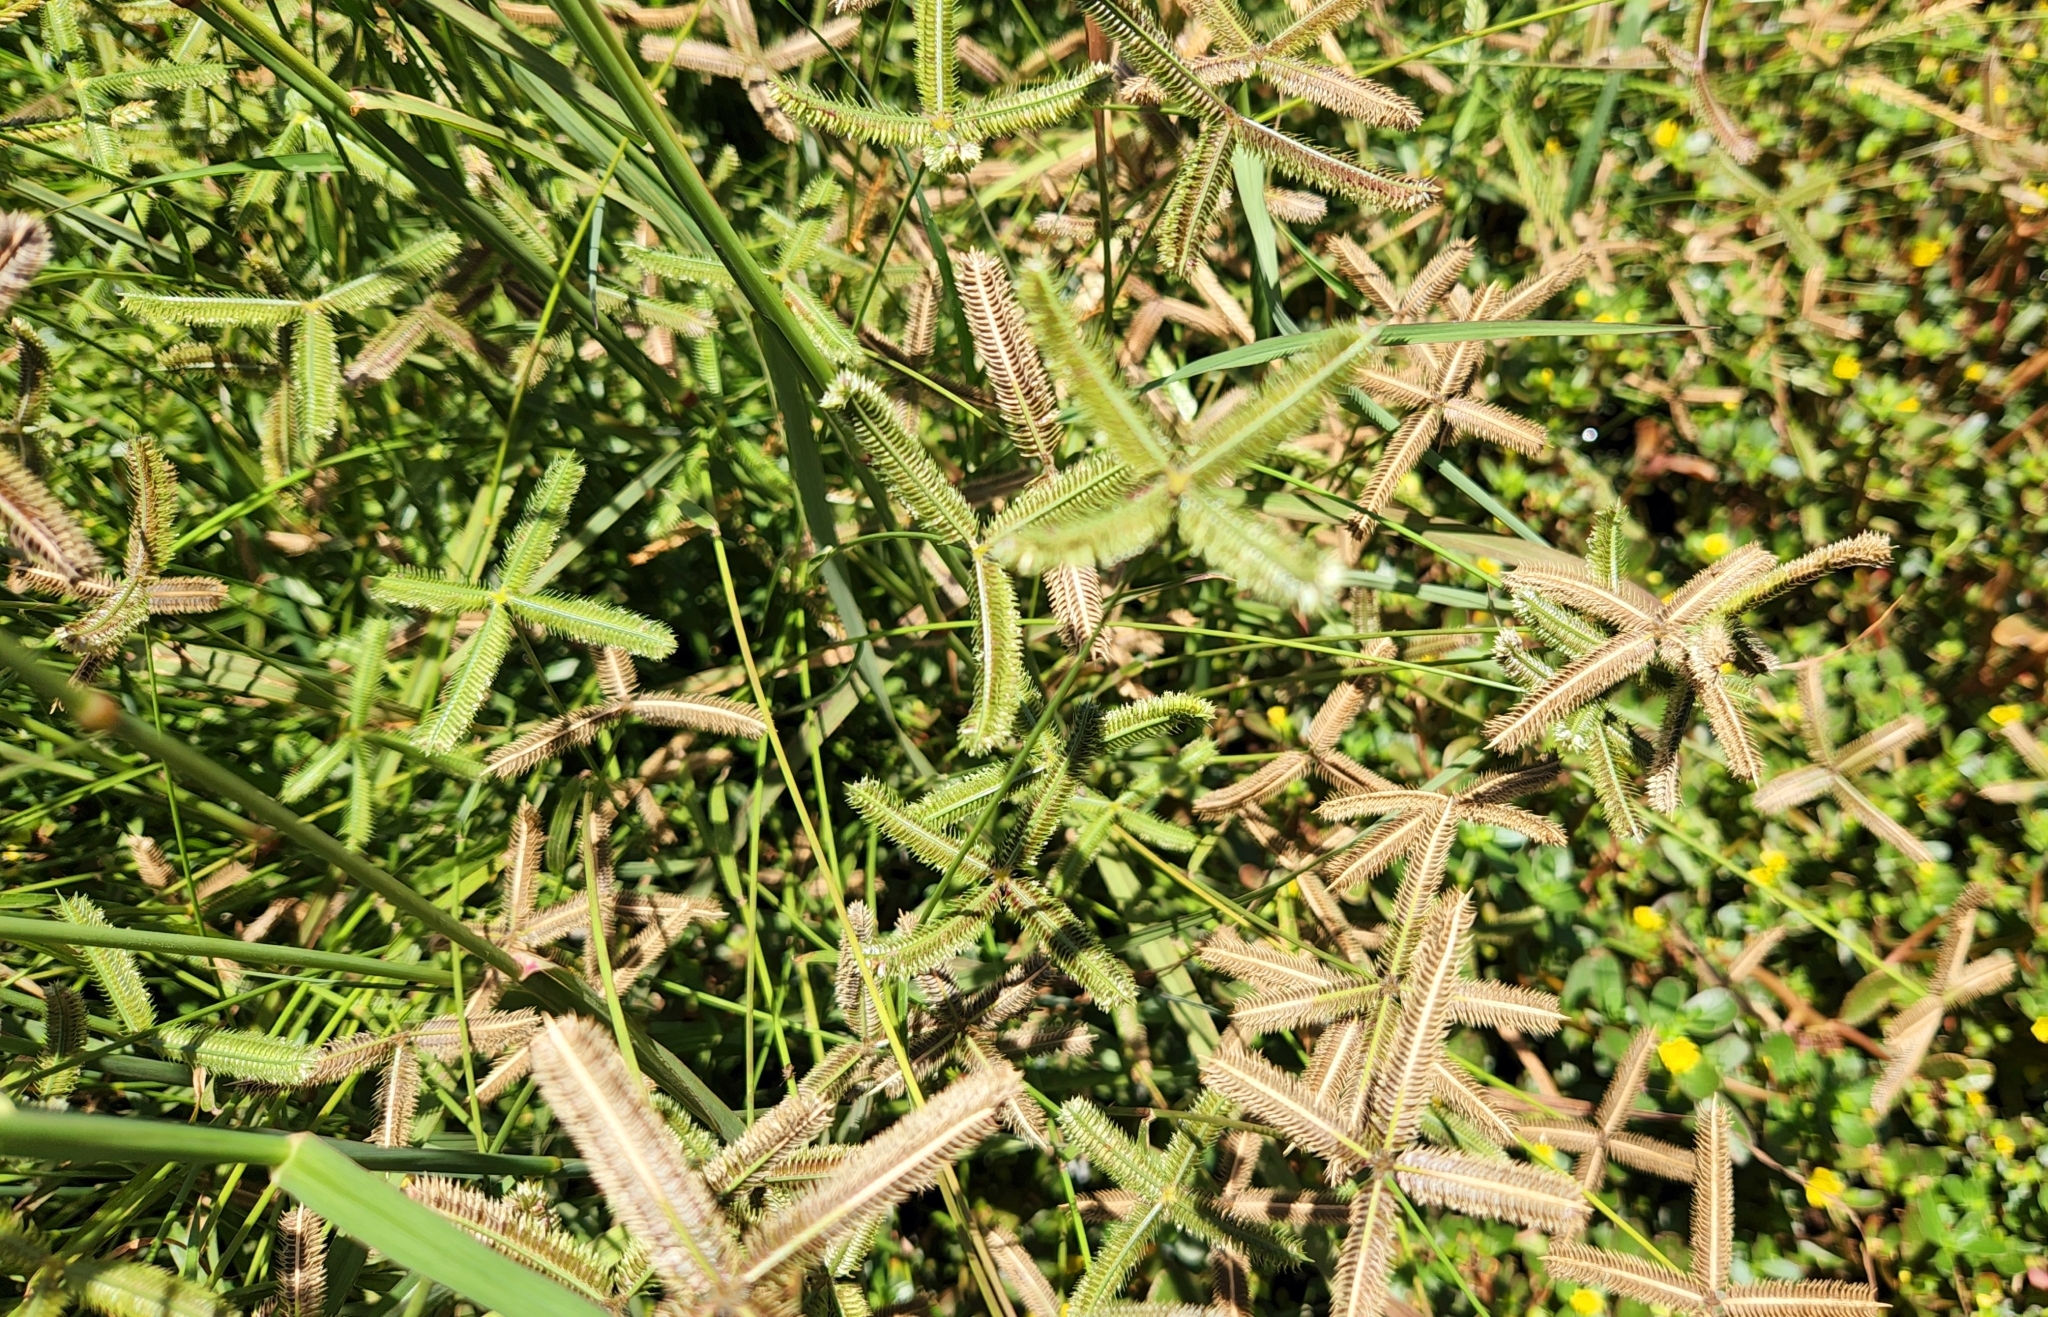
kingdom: Plantae
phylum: Tracheophyta
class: Liliopsida
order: Poales
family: Poaceae
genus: Dactyloctenium
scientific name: Dactyloctenium aegyptium
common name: Egyptian grass
